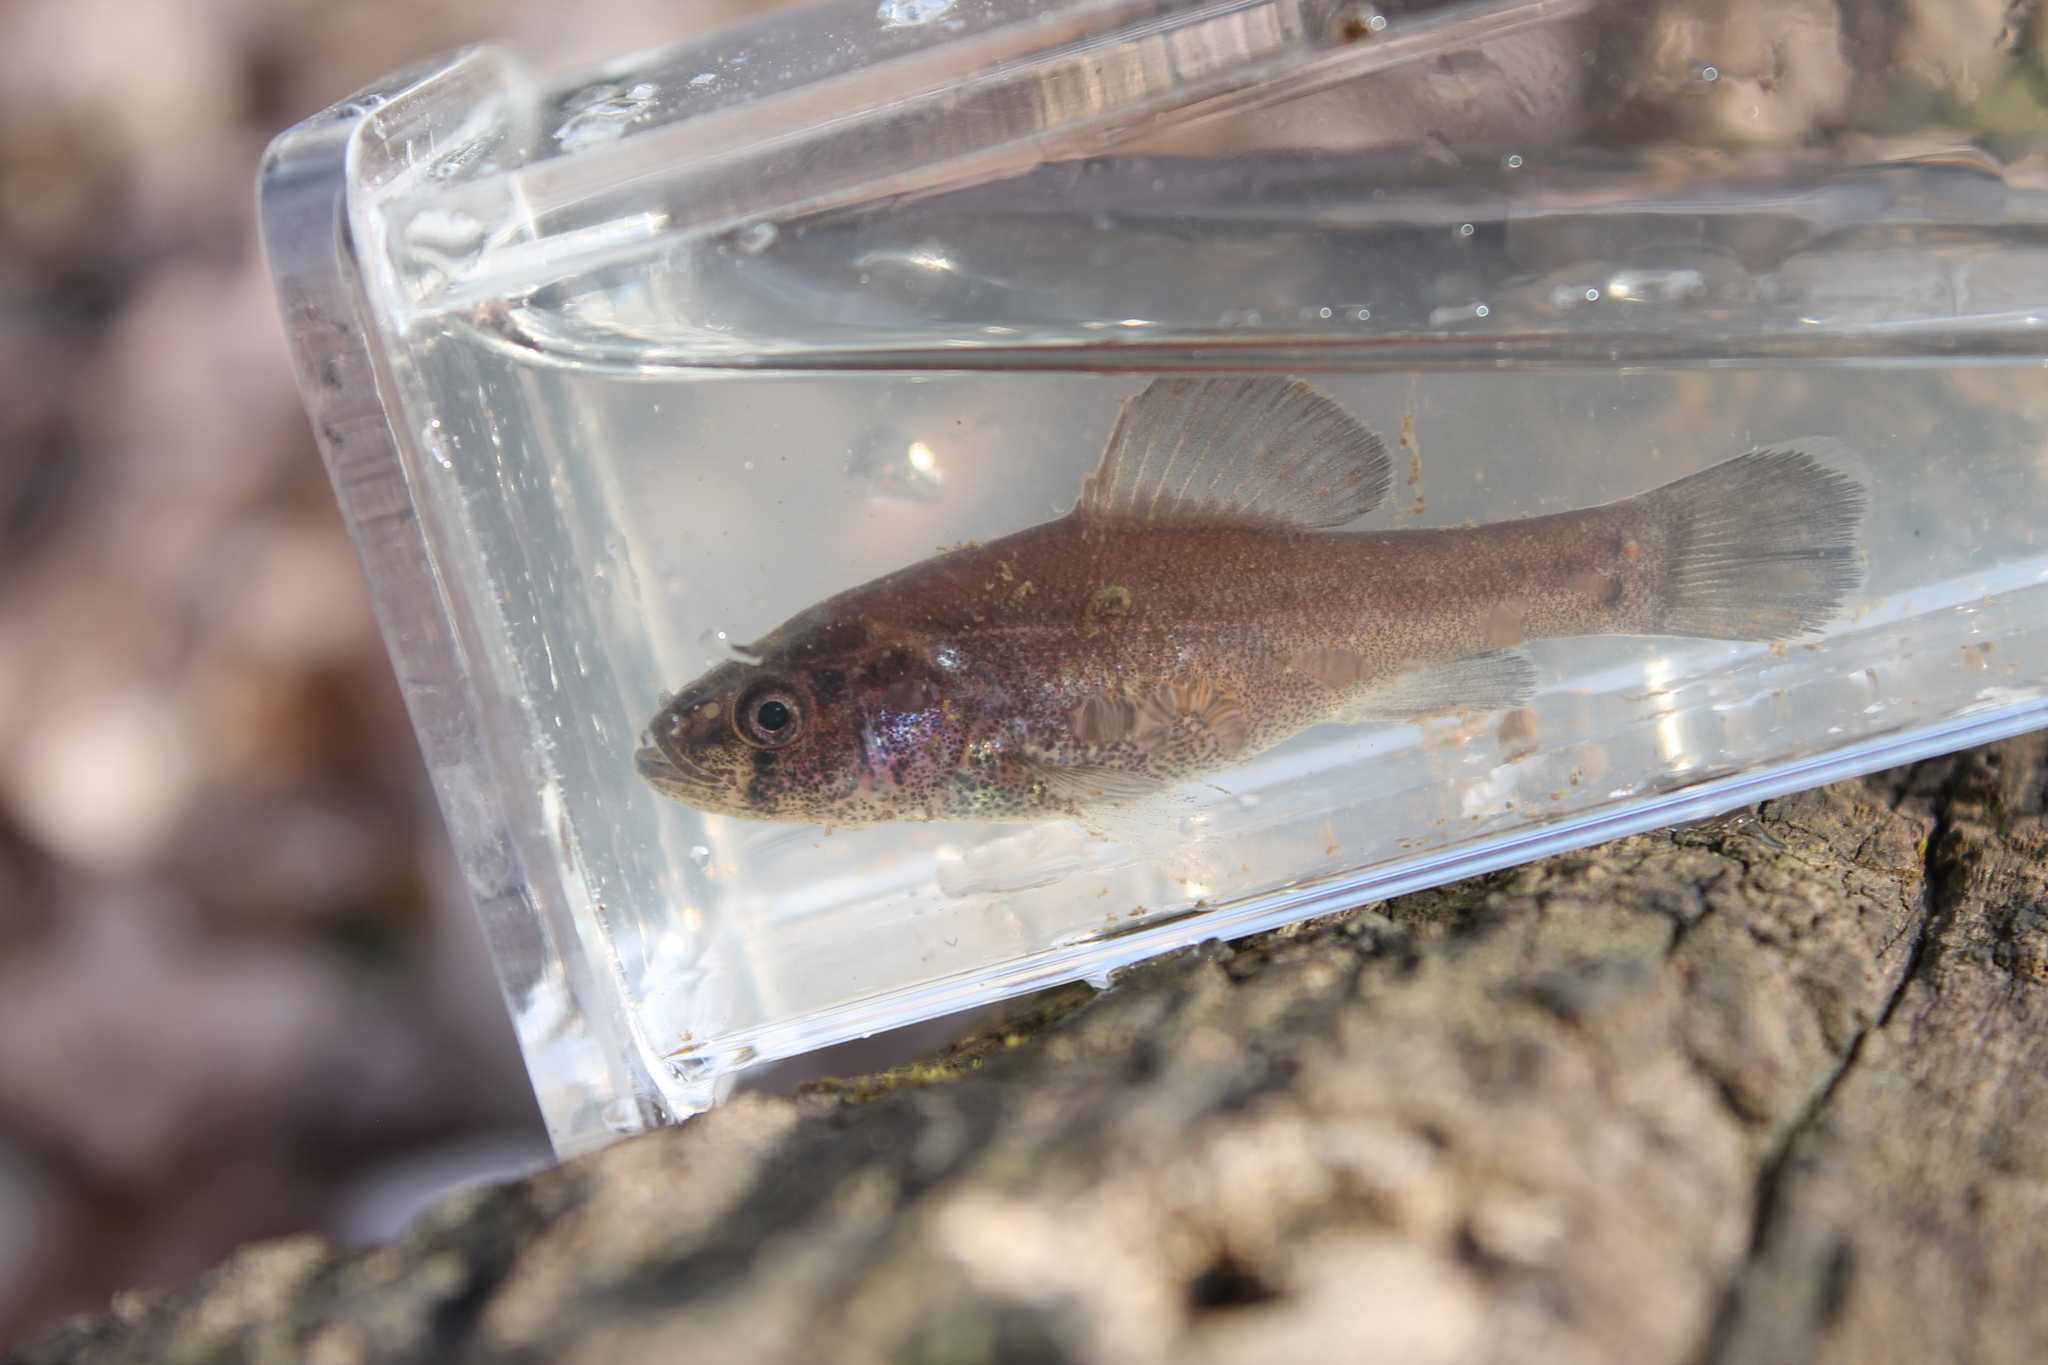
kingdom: Animalia
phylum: Chordata
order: Percopsiformes
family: Aphredoderidae
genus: Aphredoderus
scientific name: Aphredoderus sayanus
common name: Pirate perch
